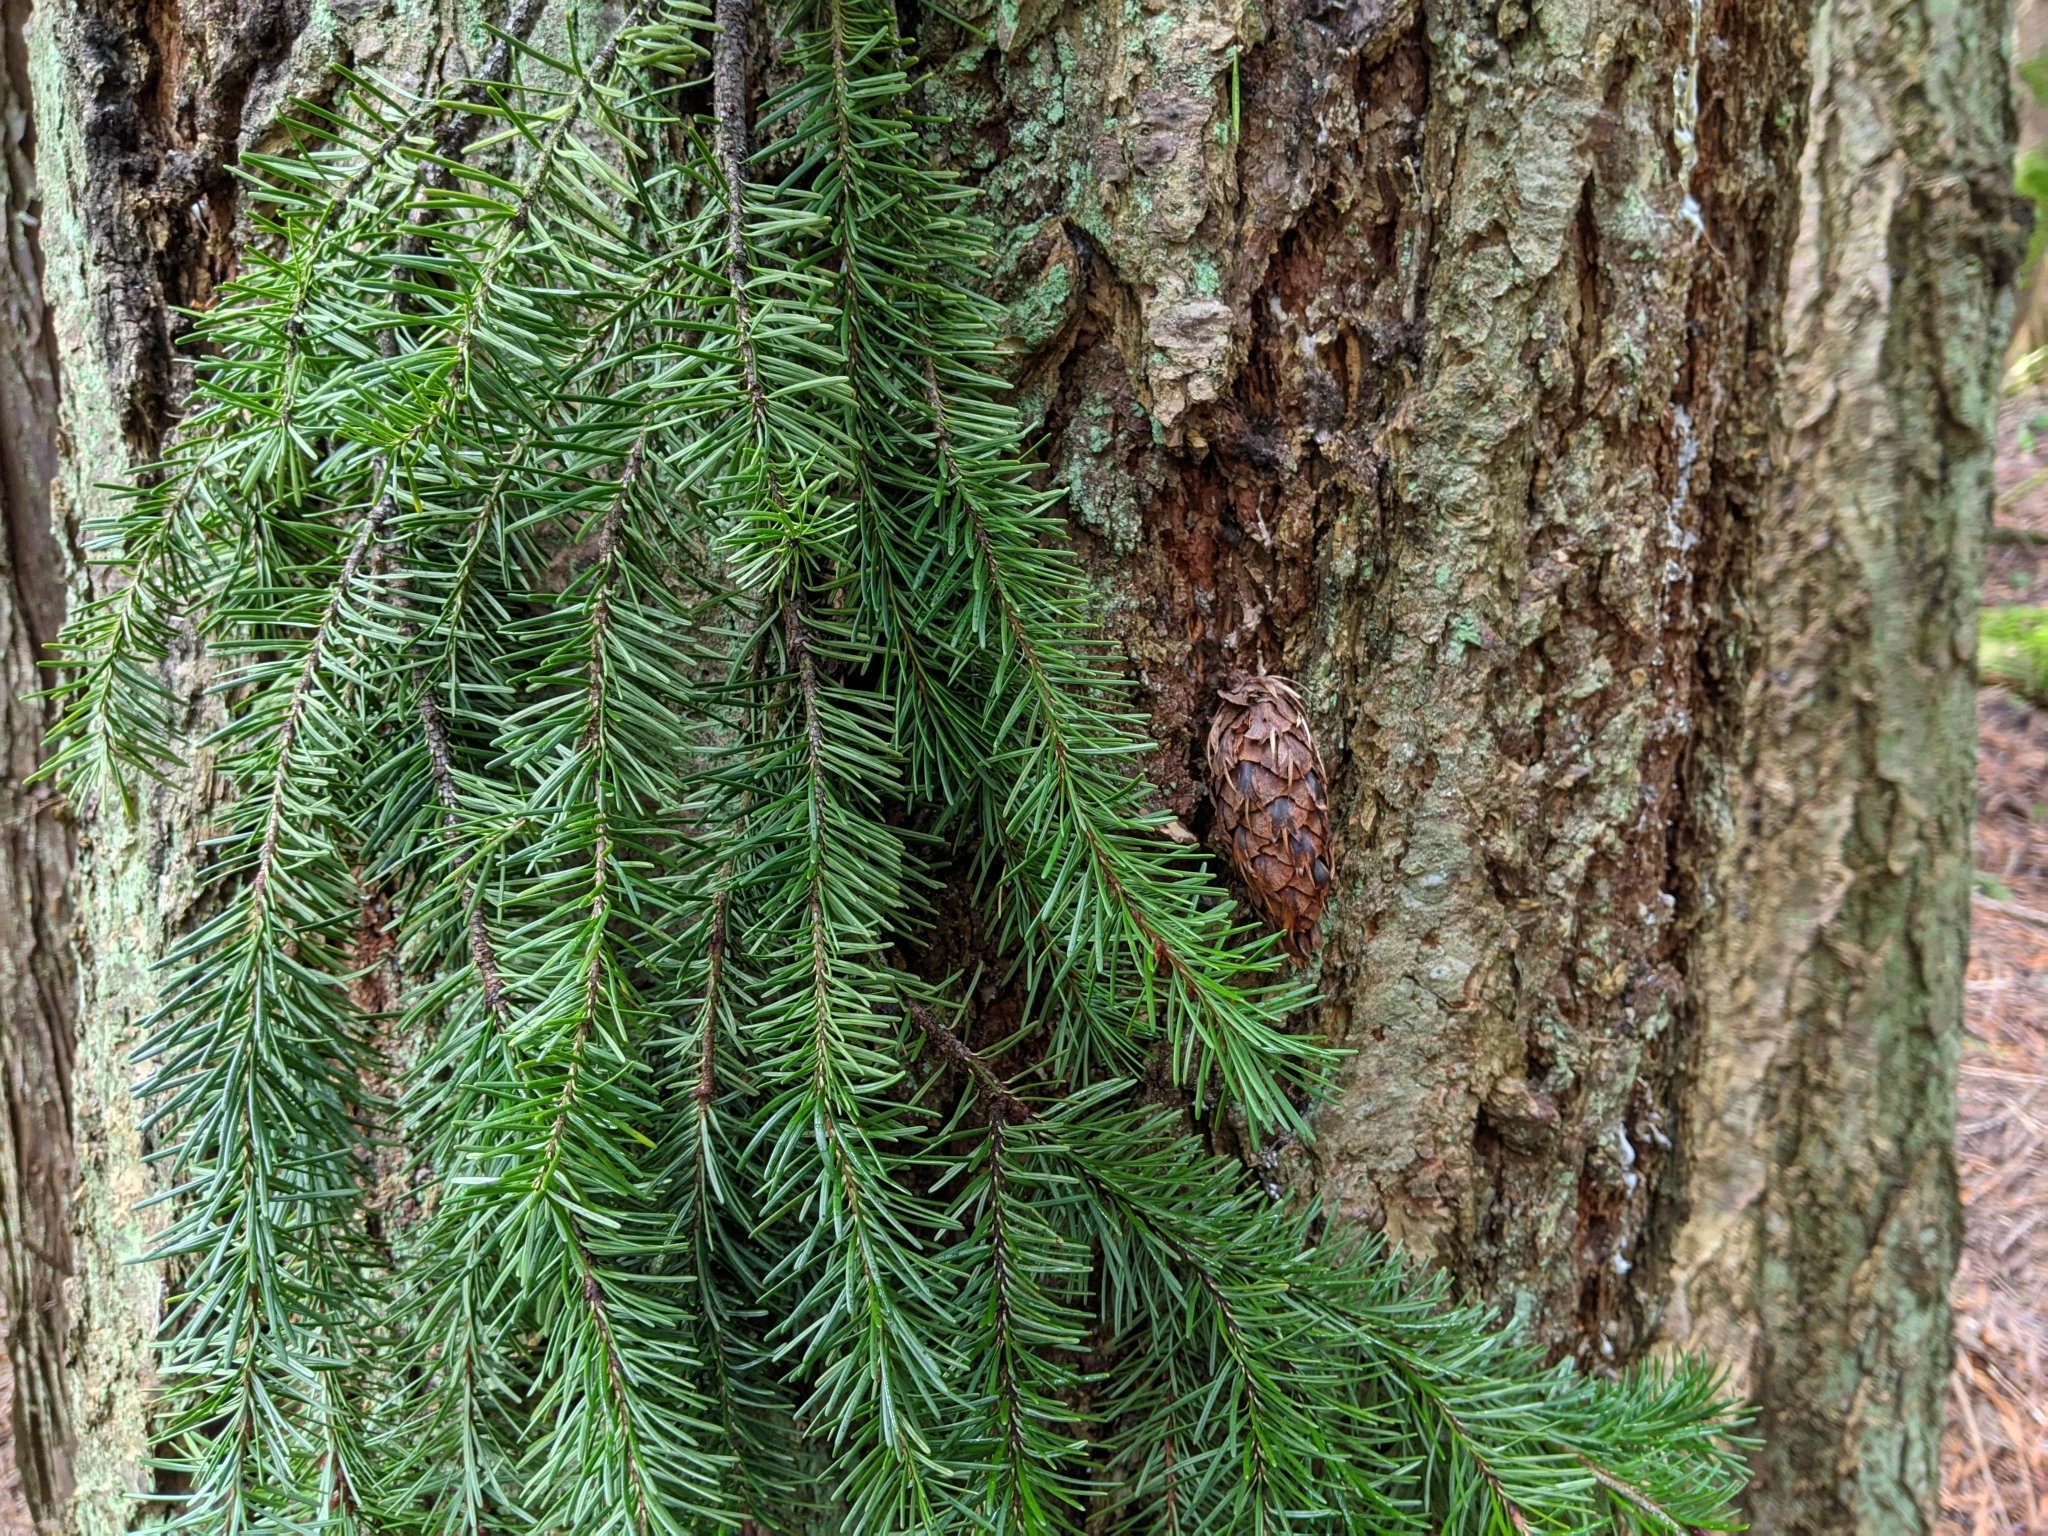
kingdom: Plantae
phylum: Tracheophyta
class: Pinopsida
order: Pinales
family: Pinaceae
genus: Pseudotsuga
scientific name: Pseudotsuga menziesii
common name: Douglas fir
